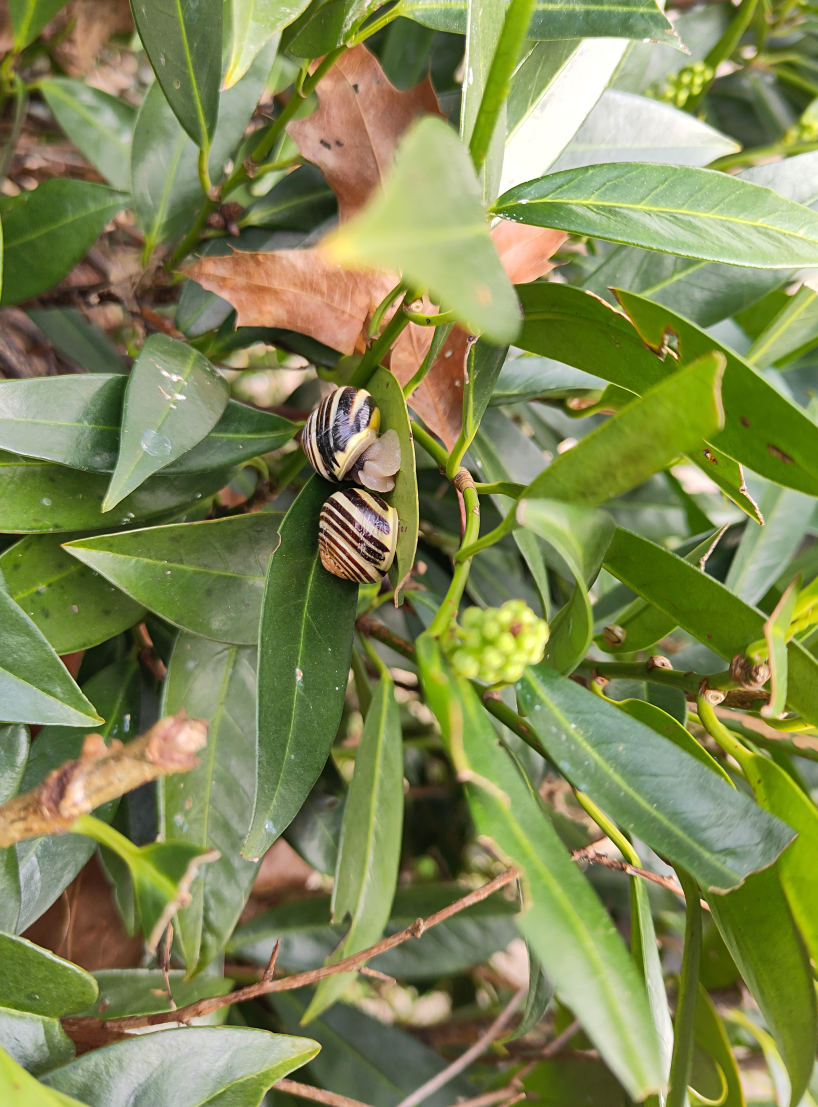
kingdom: Animalia
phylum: Mollusca
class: Gastropoda
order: Stylommatophora
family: Helicidae
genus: Cepaea
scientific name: Cepaea hortensis
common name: White-lip gardensnail
